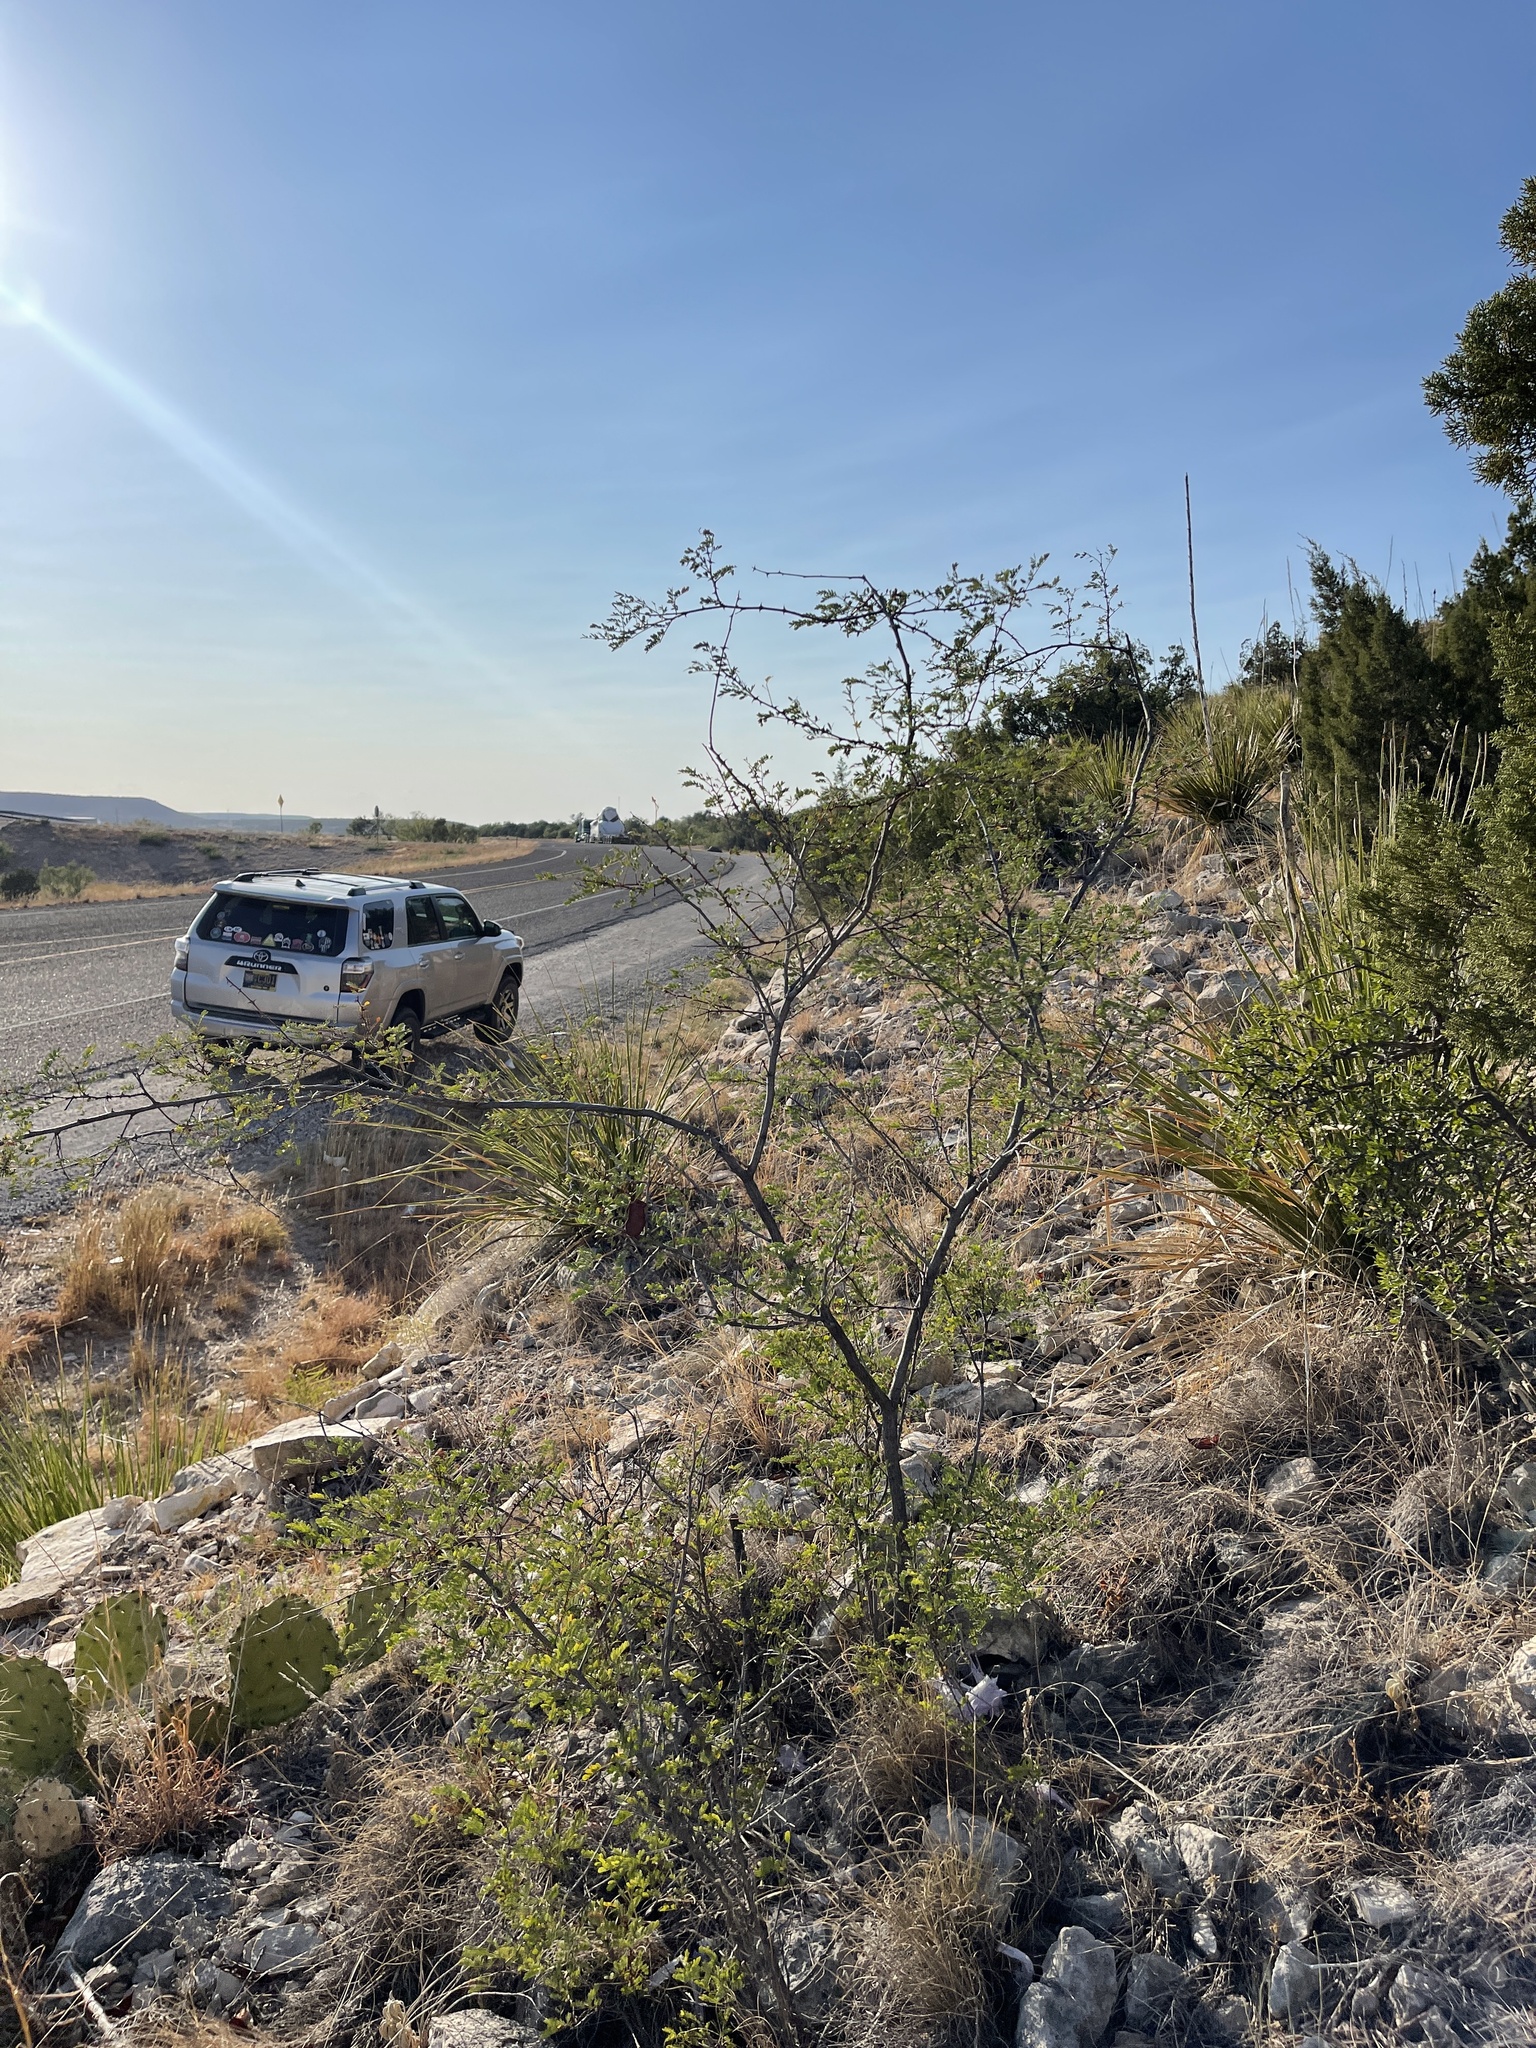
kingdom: Plantae
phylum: Tracheophyta
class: Magnoliopsida
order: Fabales
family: Fabaceae
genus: Senegalia
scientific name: Senegalia roemeriana
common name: Roemer's acacia
